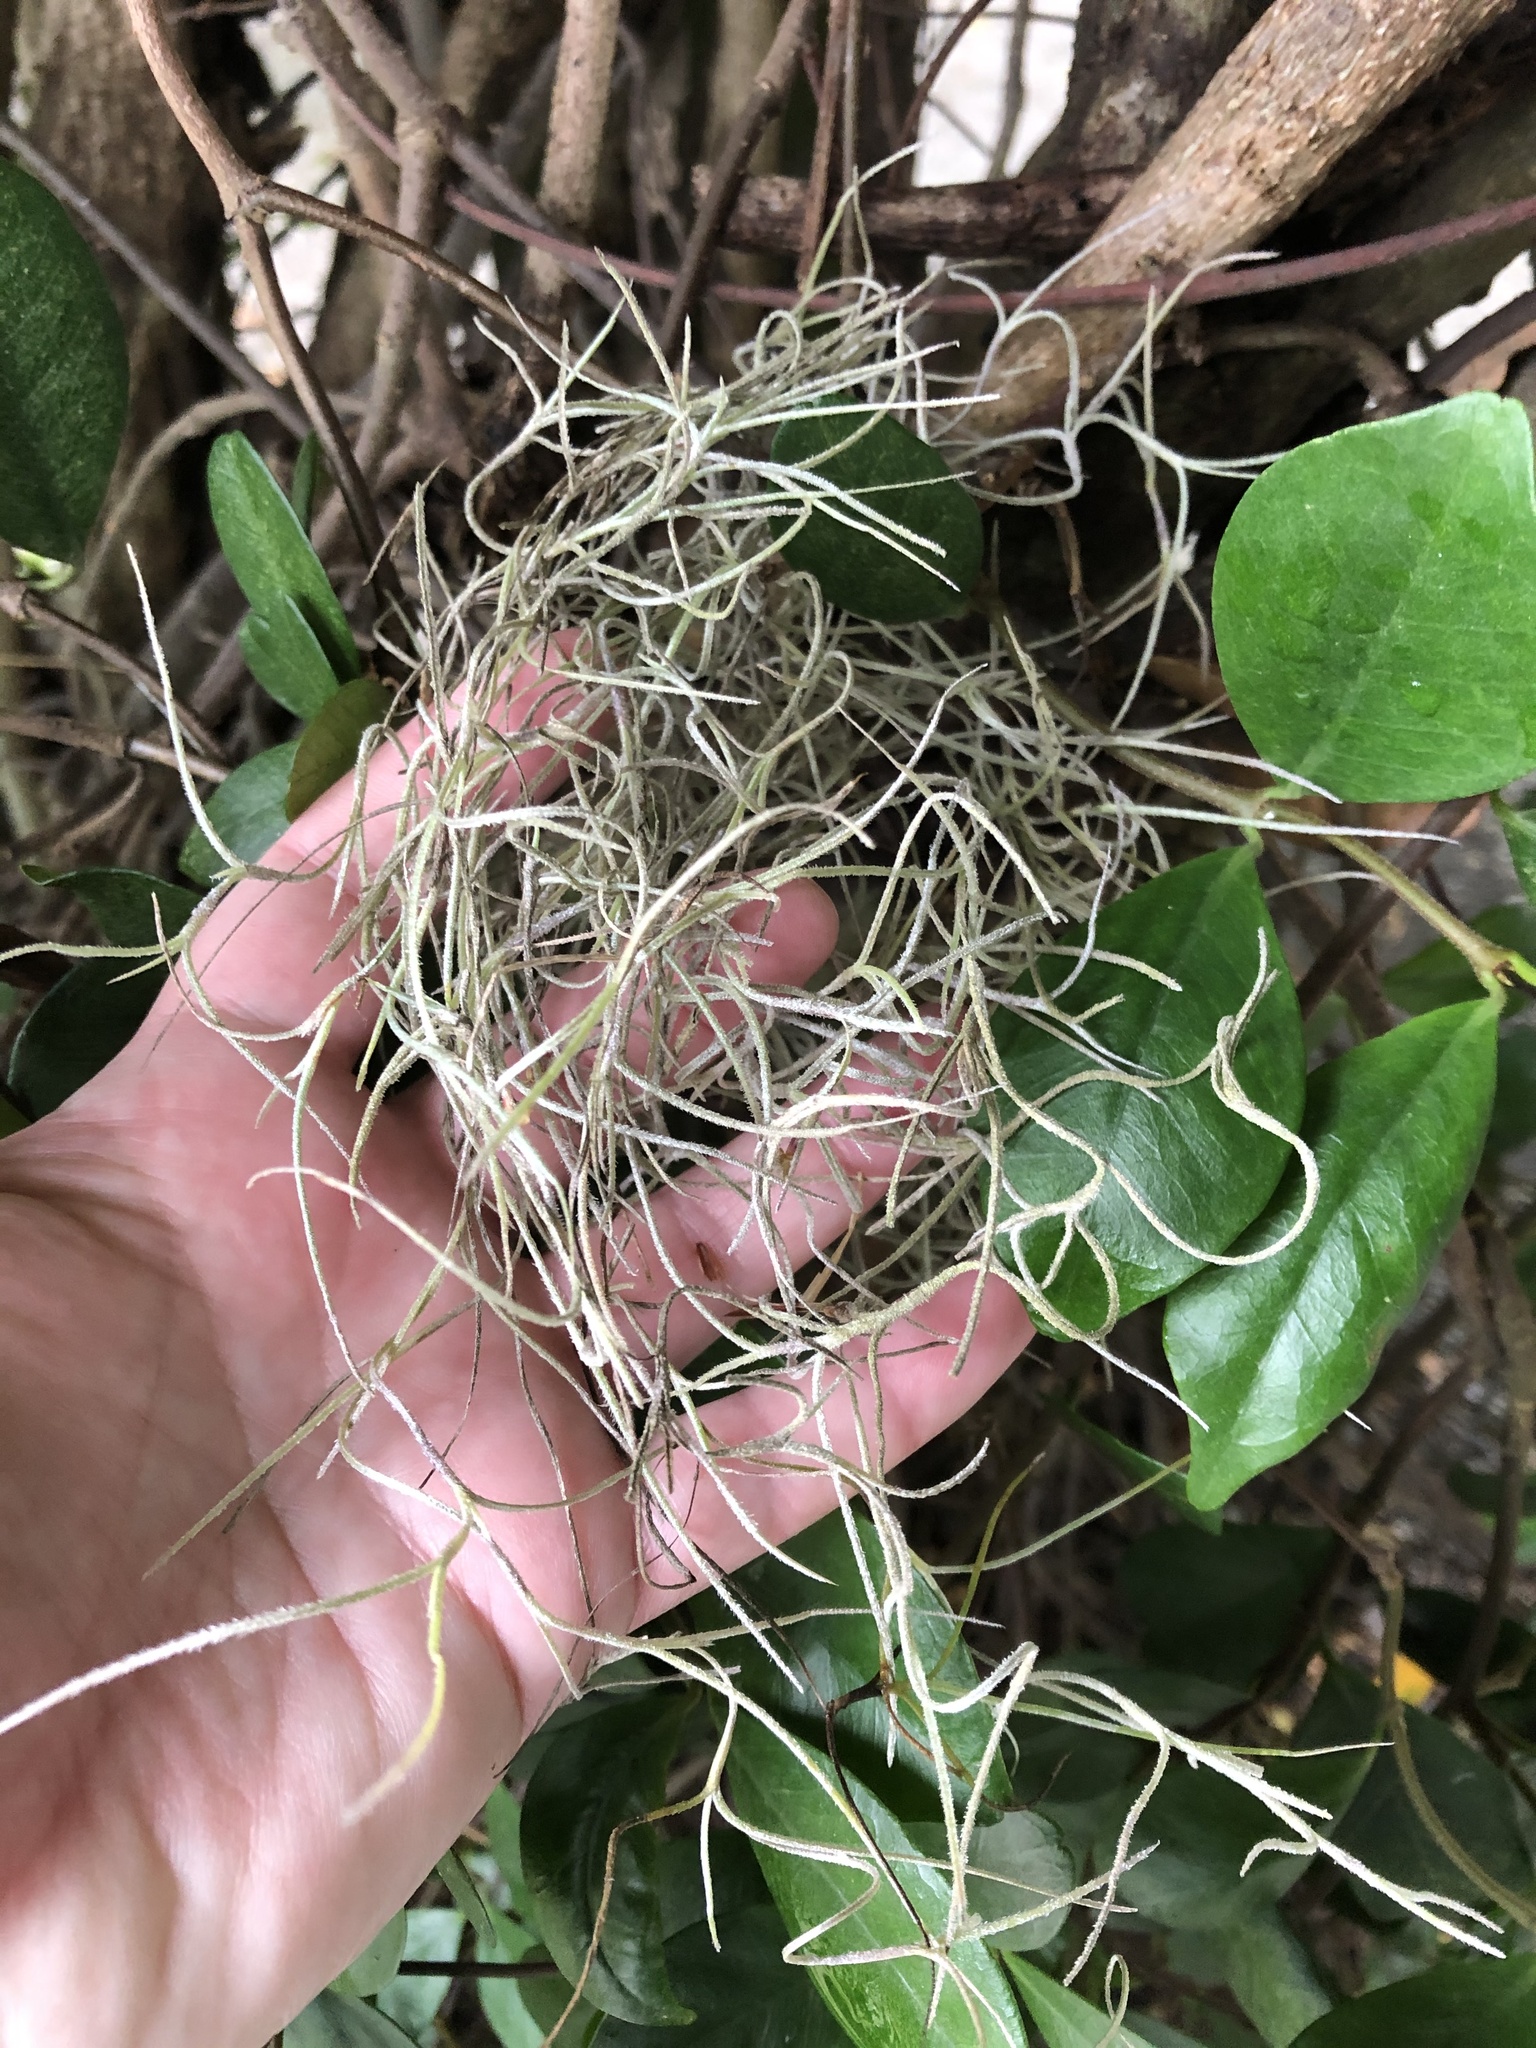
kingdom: Plantae
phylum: Tracheophyta
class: Liliopsida
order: Poales
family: Bromeliaceae
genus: Tillandsia
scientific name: Tillandsia usneoides
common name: Spanish moss
